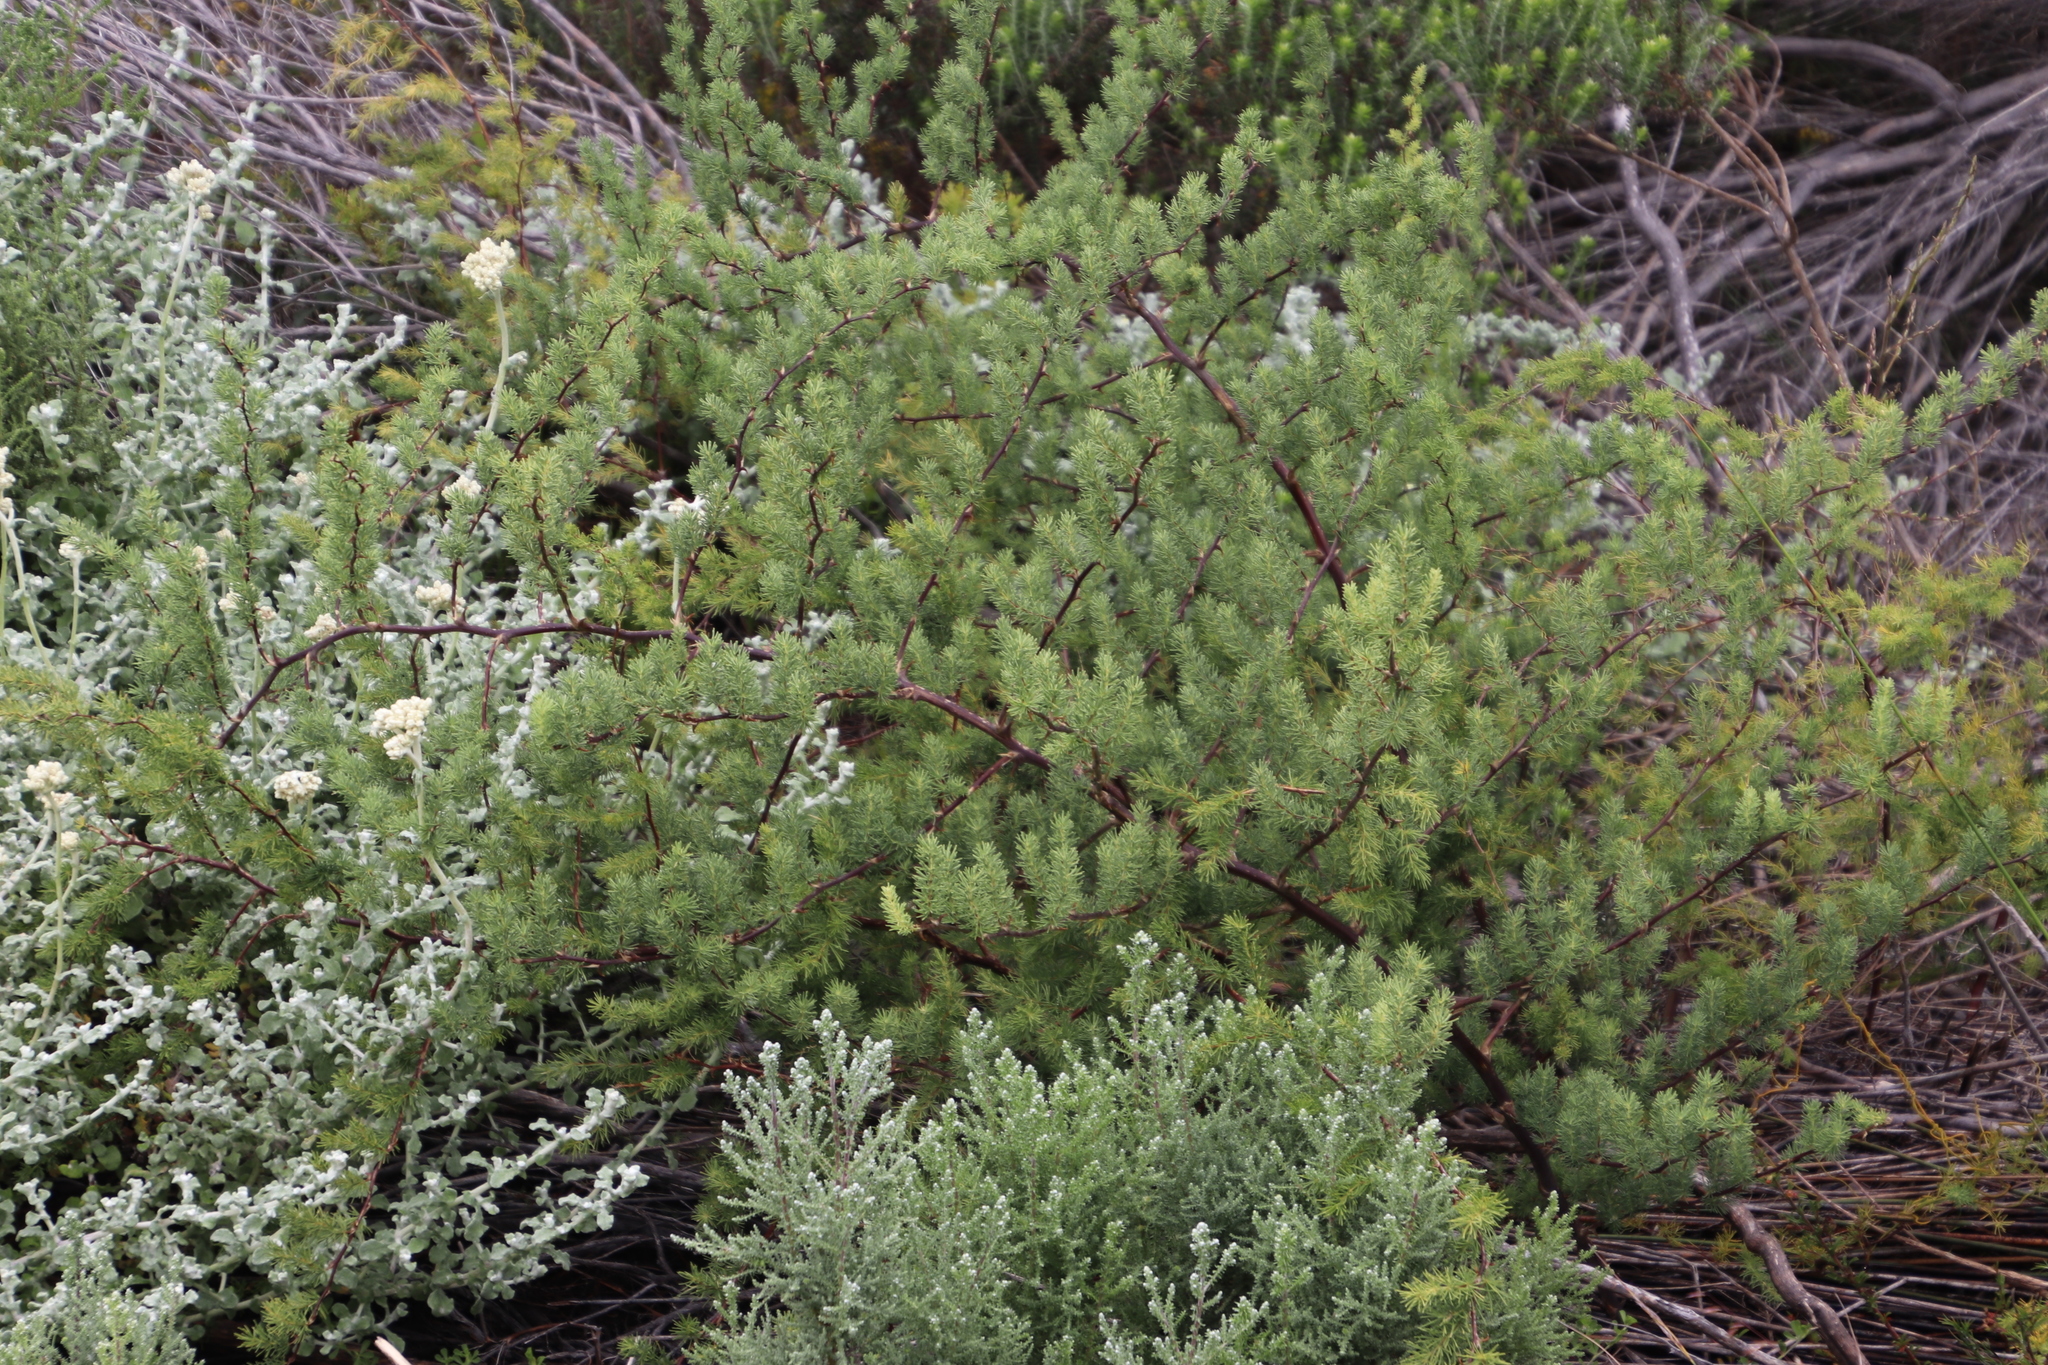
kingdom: Plantae
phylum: Tracheophyta
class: Liliopsida
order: Asparagales
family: Asparagaceae
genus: Asparagus
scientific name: Asparagus rubicundus
